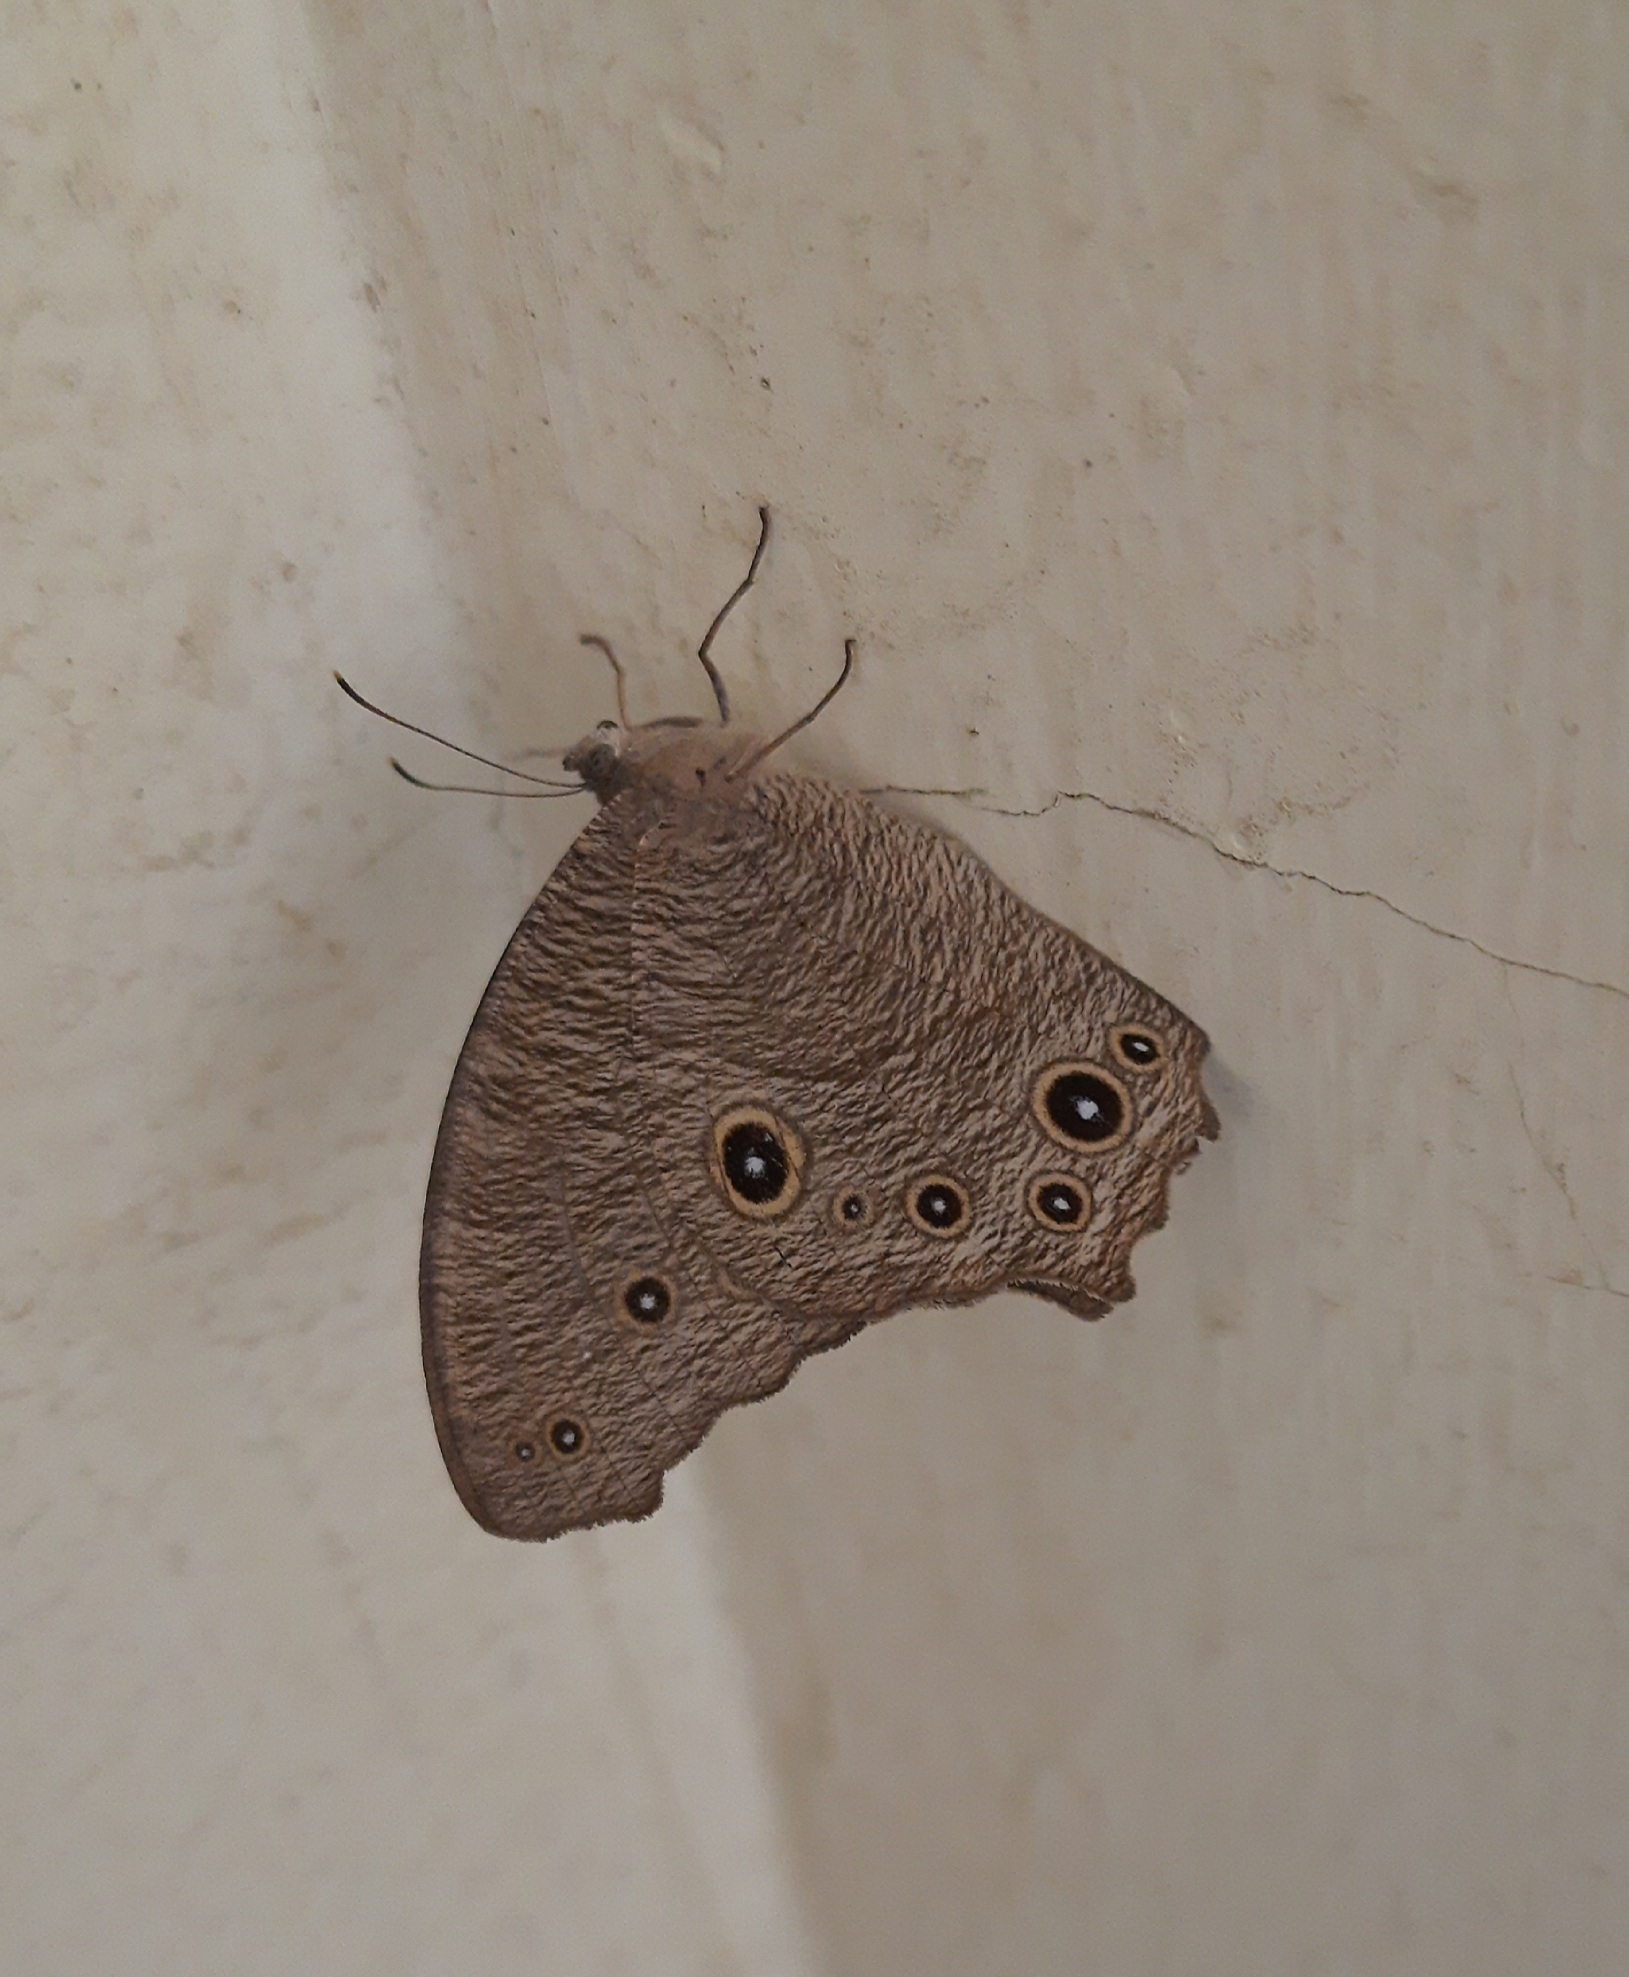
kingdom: Animalia
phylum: Arthropoda
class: Insecta
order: Lepidoptera
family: Nymphalidae
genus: Melanitis
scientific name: Melanitis leda
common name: Twilight brown
